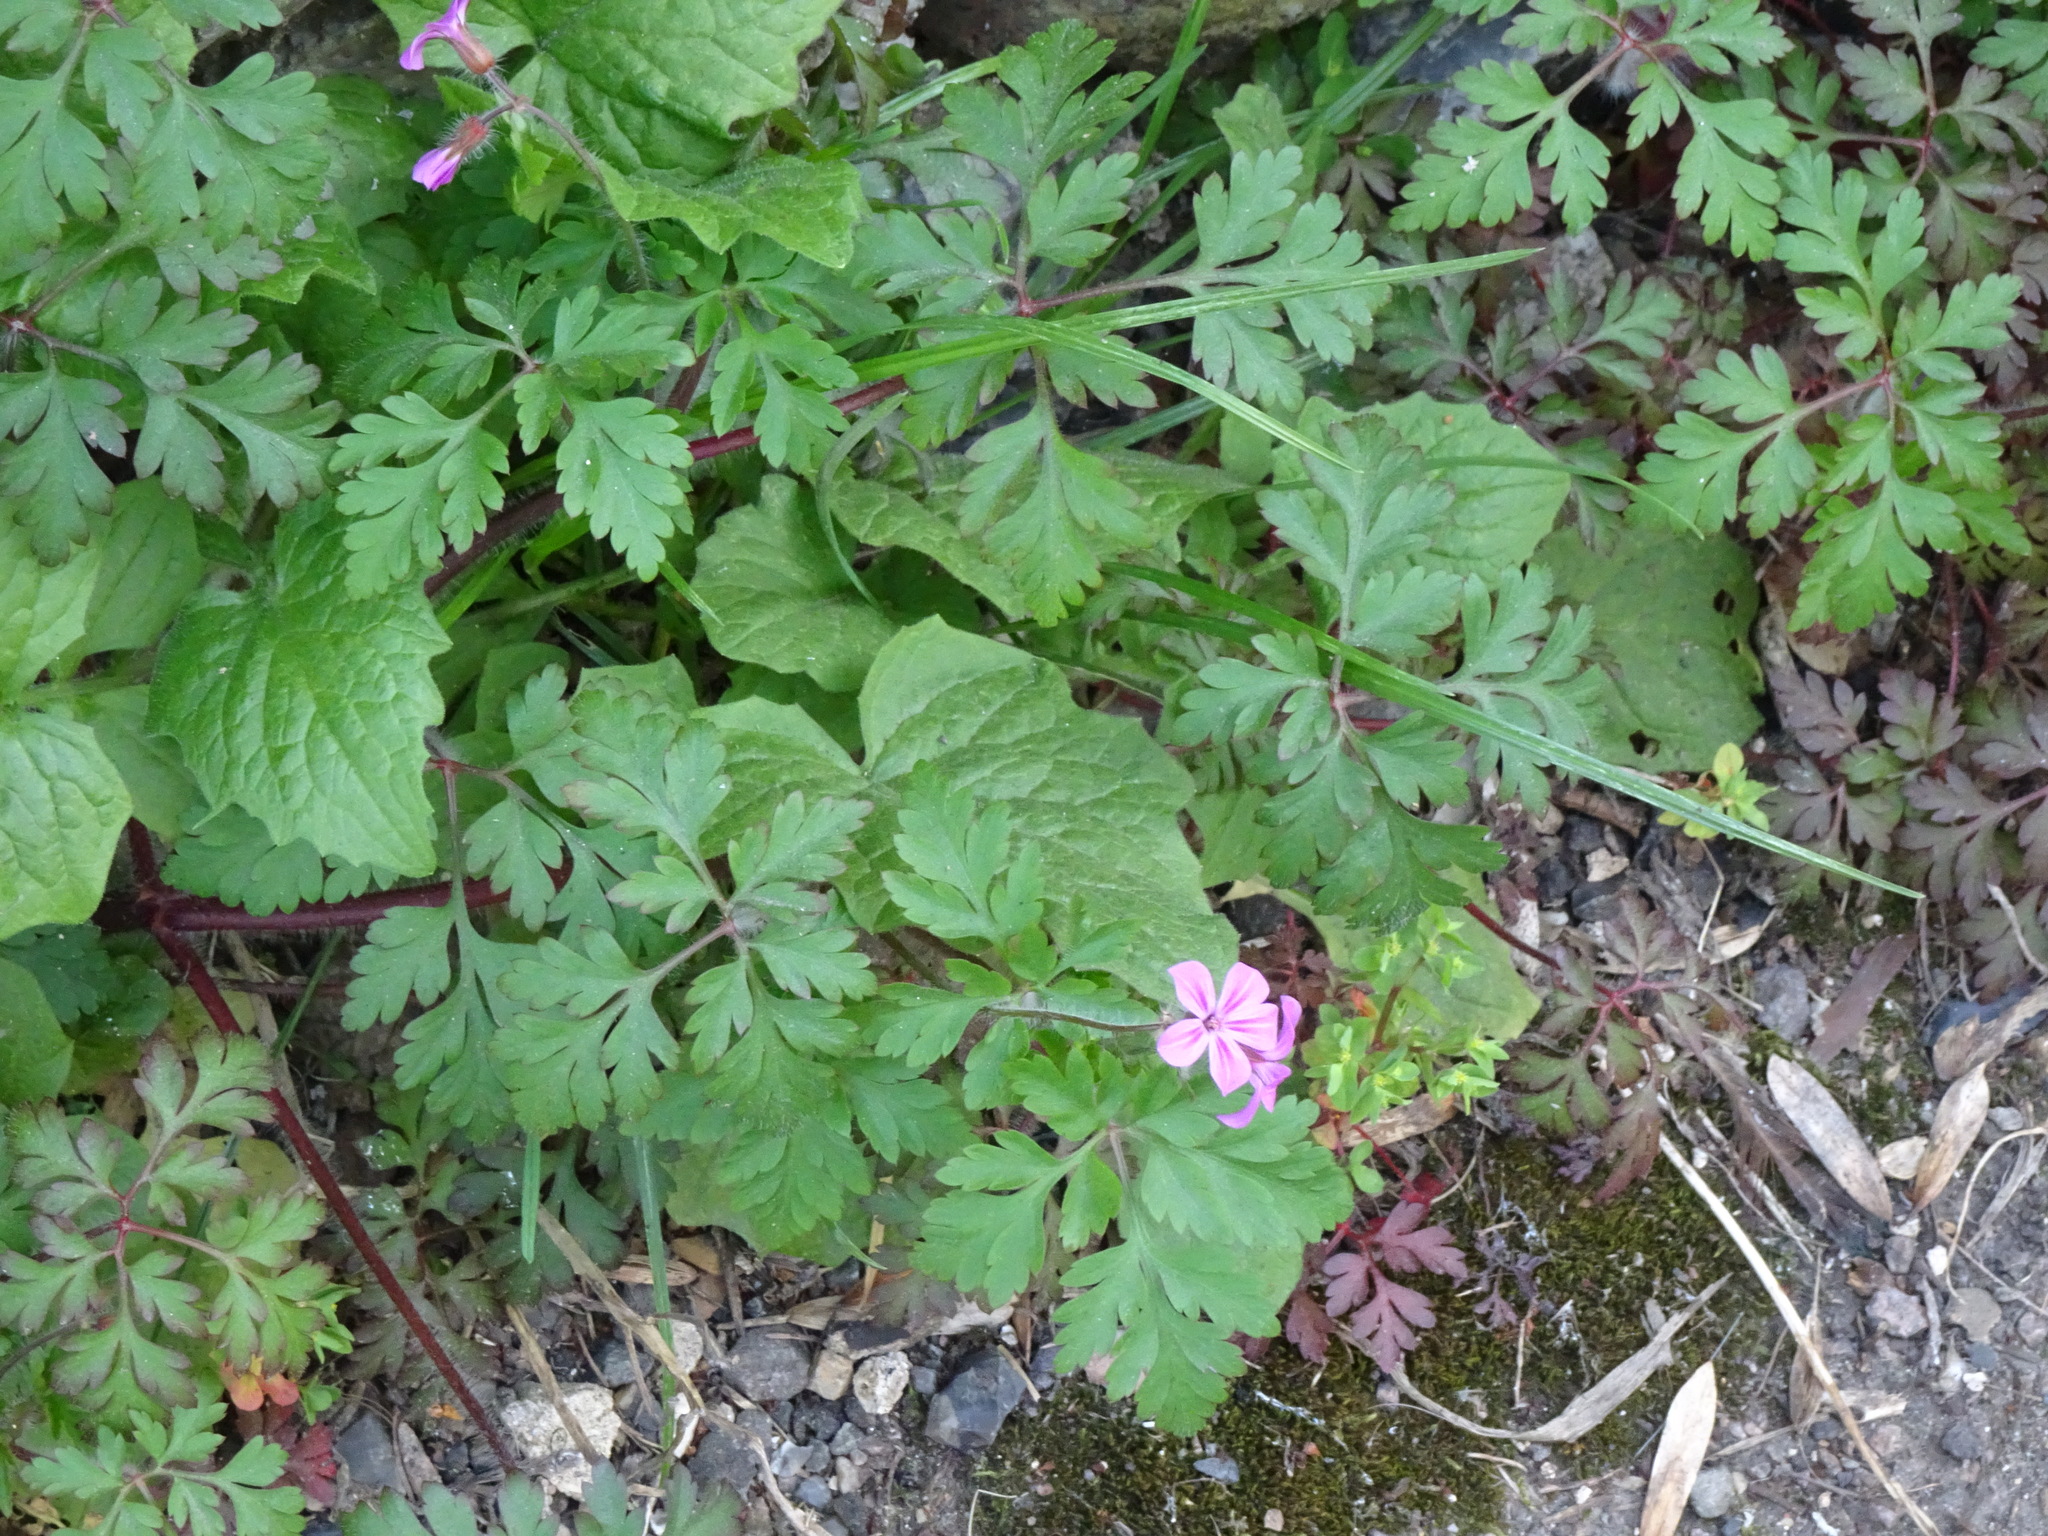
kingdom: Plantae
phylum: Tracheophyta
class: Magnoliopsida
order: Geraniales
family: Geraniaceae
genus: Geranium
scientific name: Geranium robertianum
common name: Herb-robert
